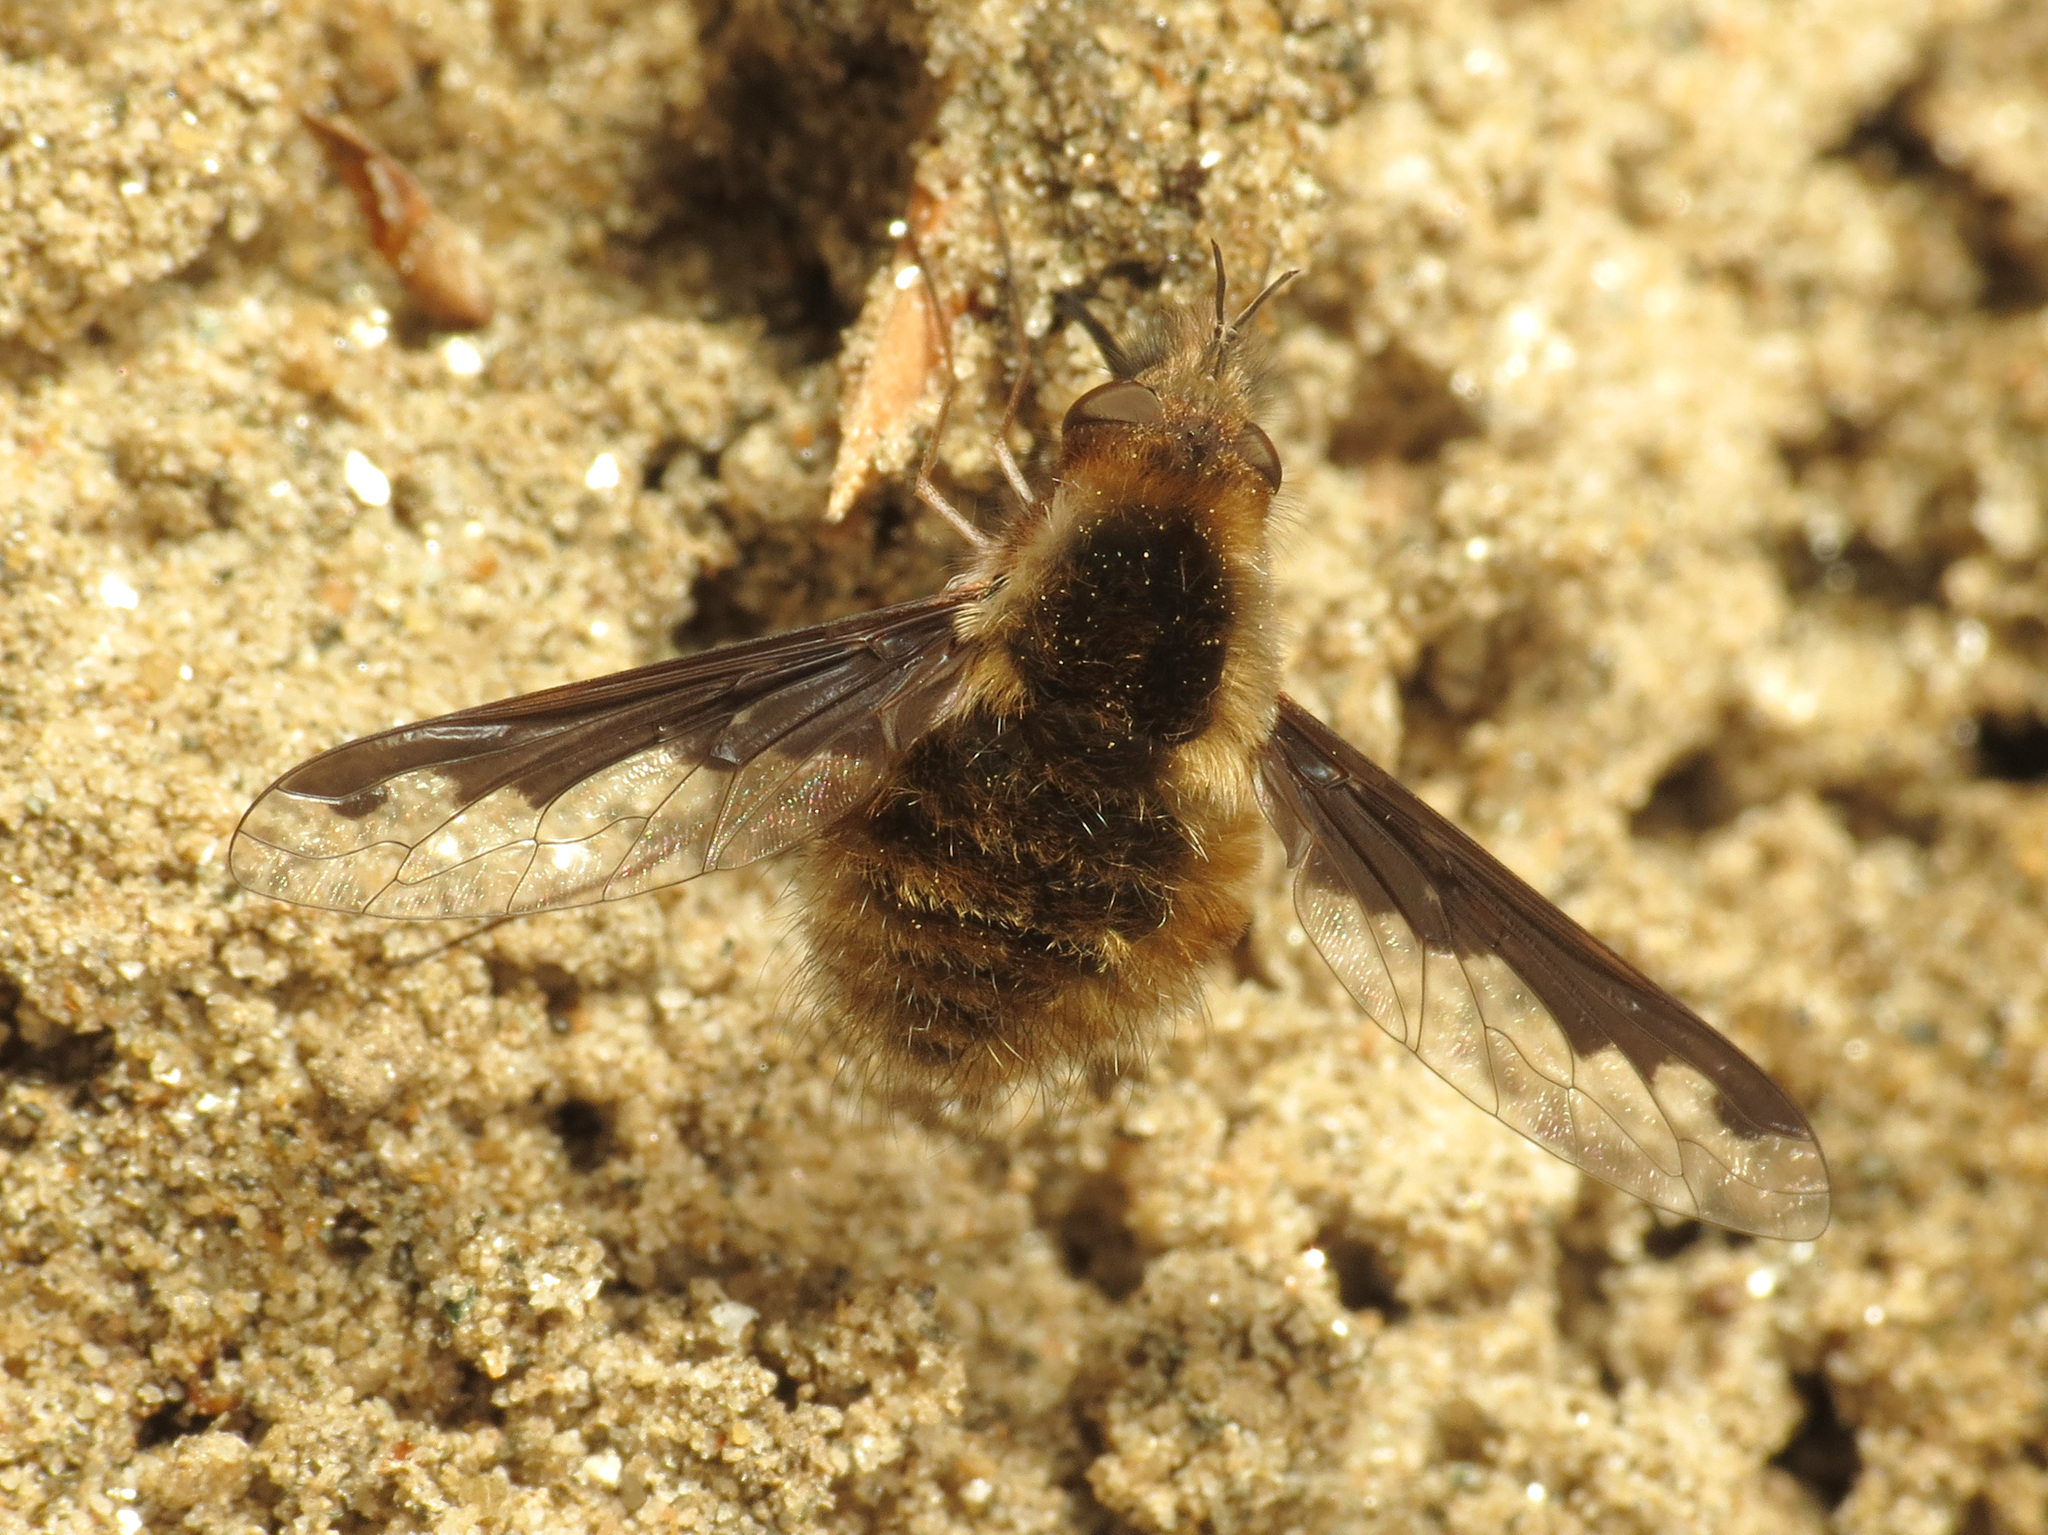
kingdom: Animalia
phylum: Arthropoda
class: Insecta
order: Diptera
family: Bombyliidae
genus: Bombylius
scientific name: Bombylius major
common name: Bee fly
